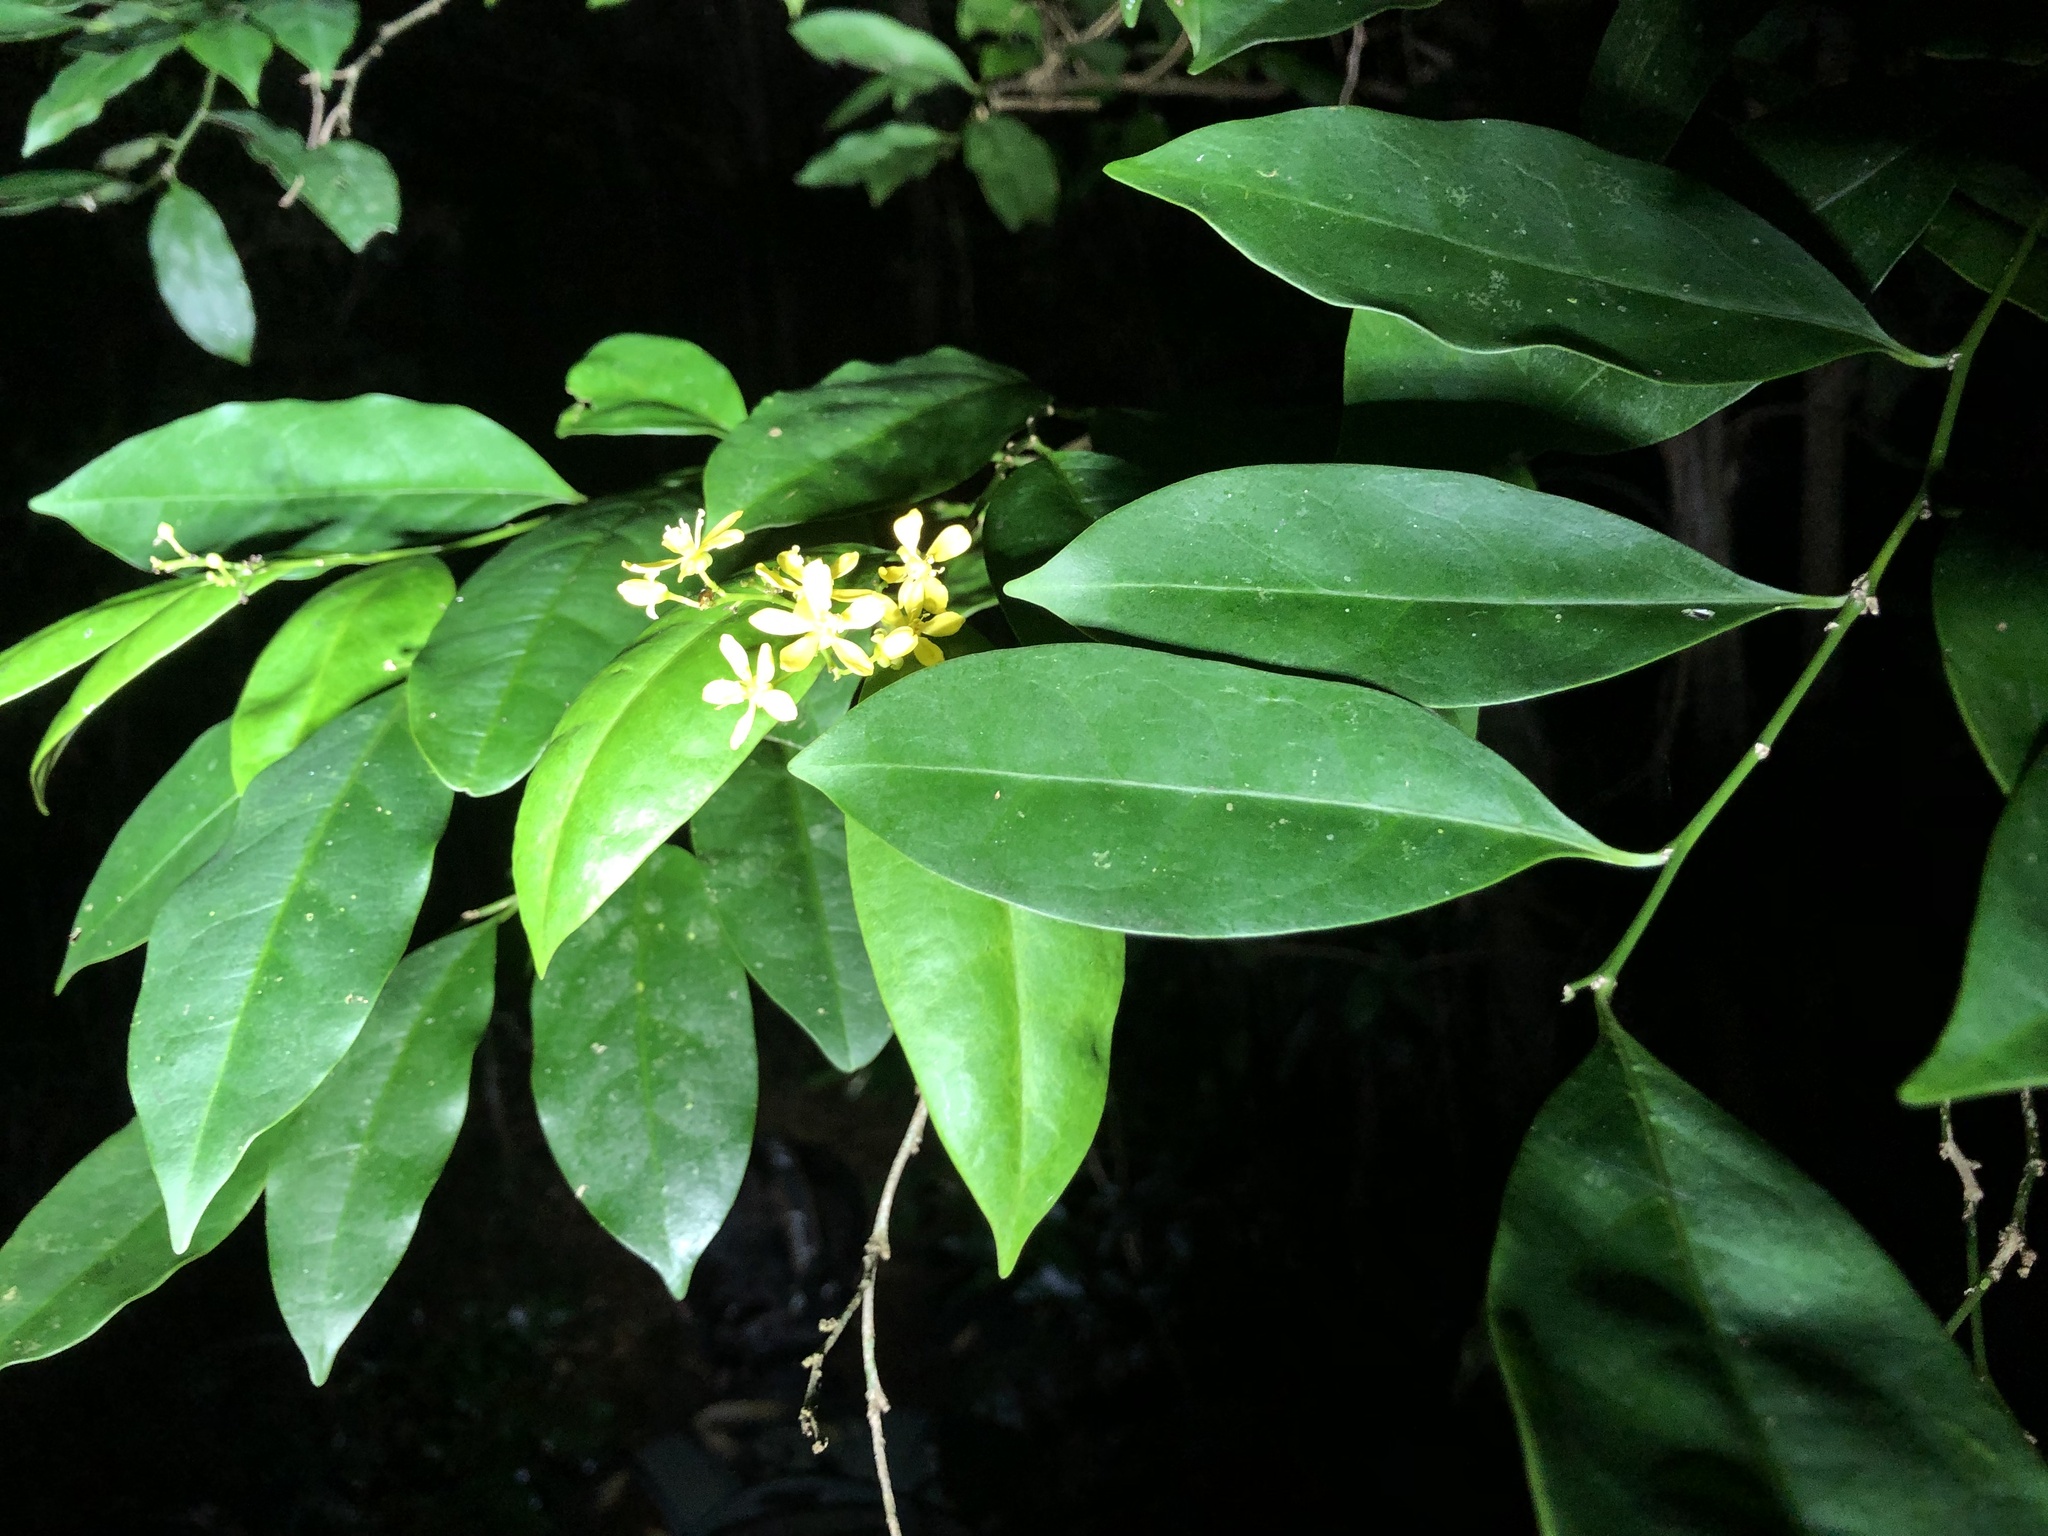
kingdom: Plantae
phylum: Tracheophyta
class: Magnoliopsida
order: Fabales
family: Surianaceae
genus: Guilfoylia
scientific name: Guilfoylia monostylis
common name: Scrub ooline
